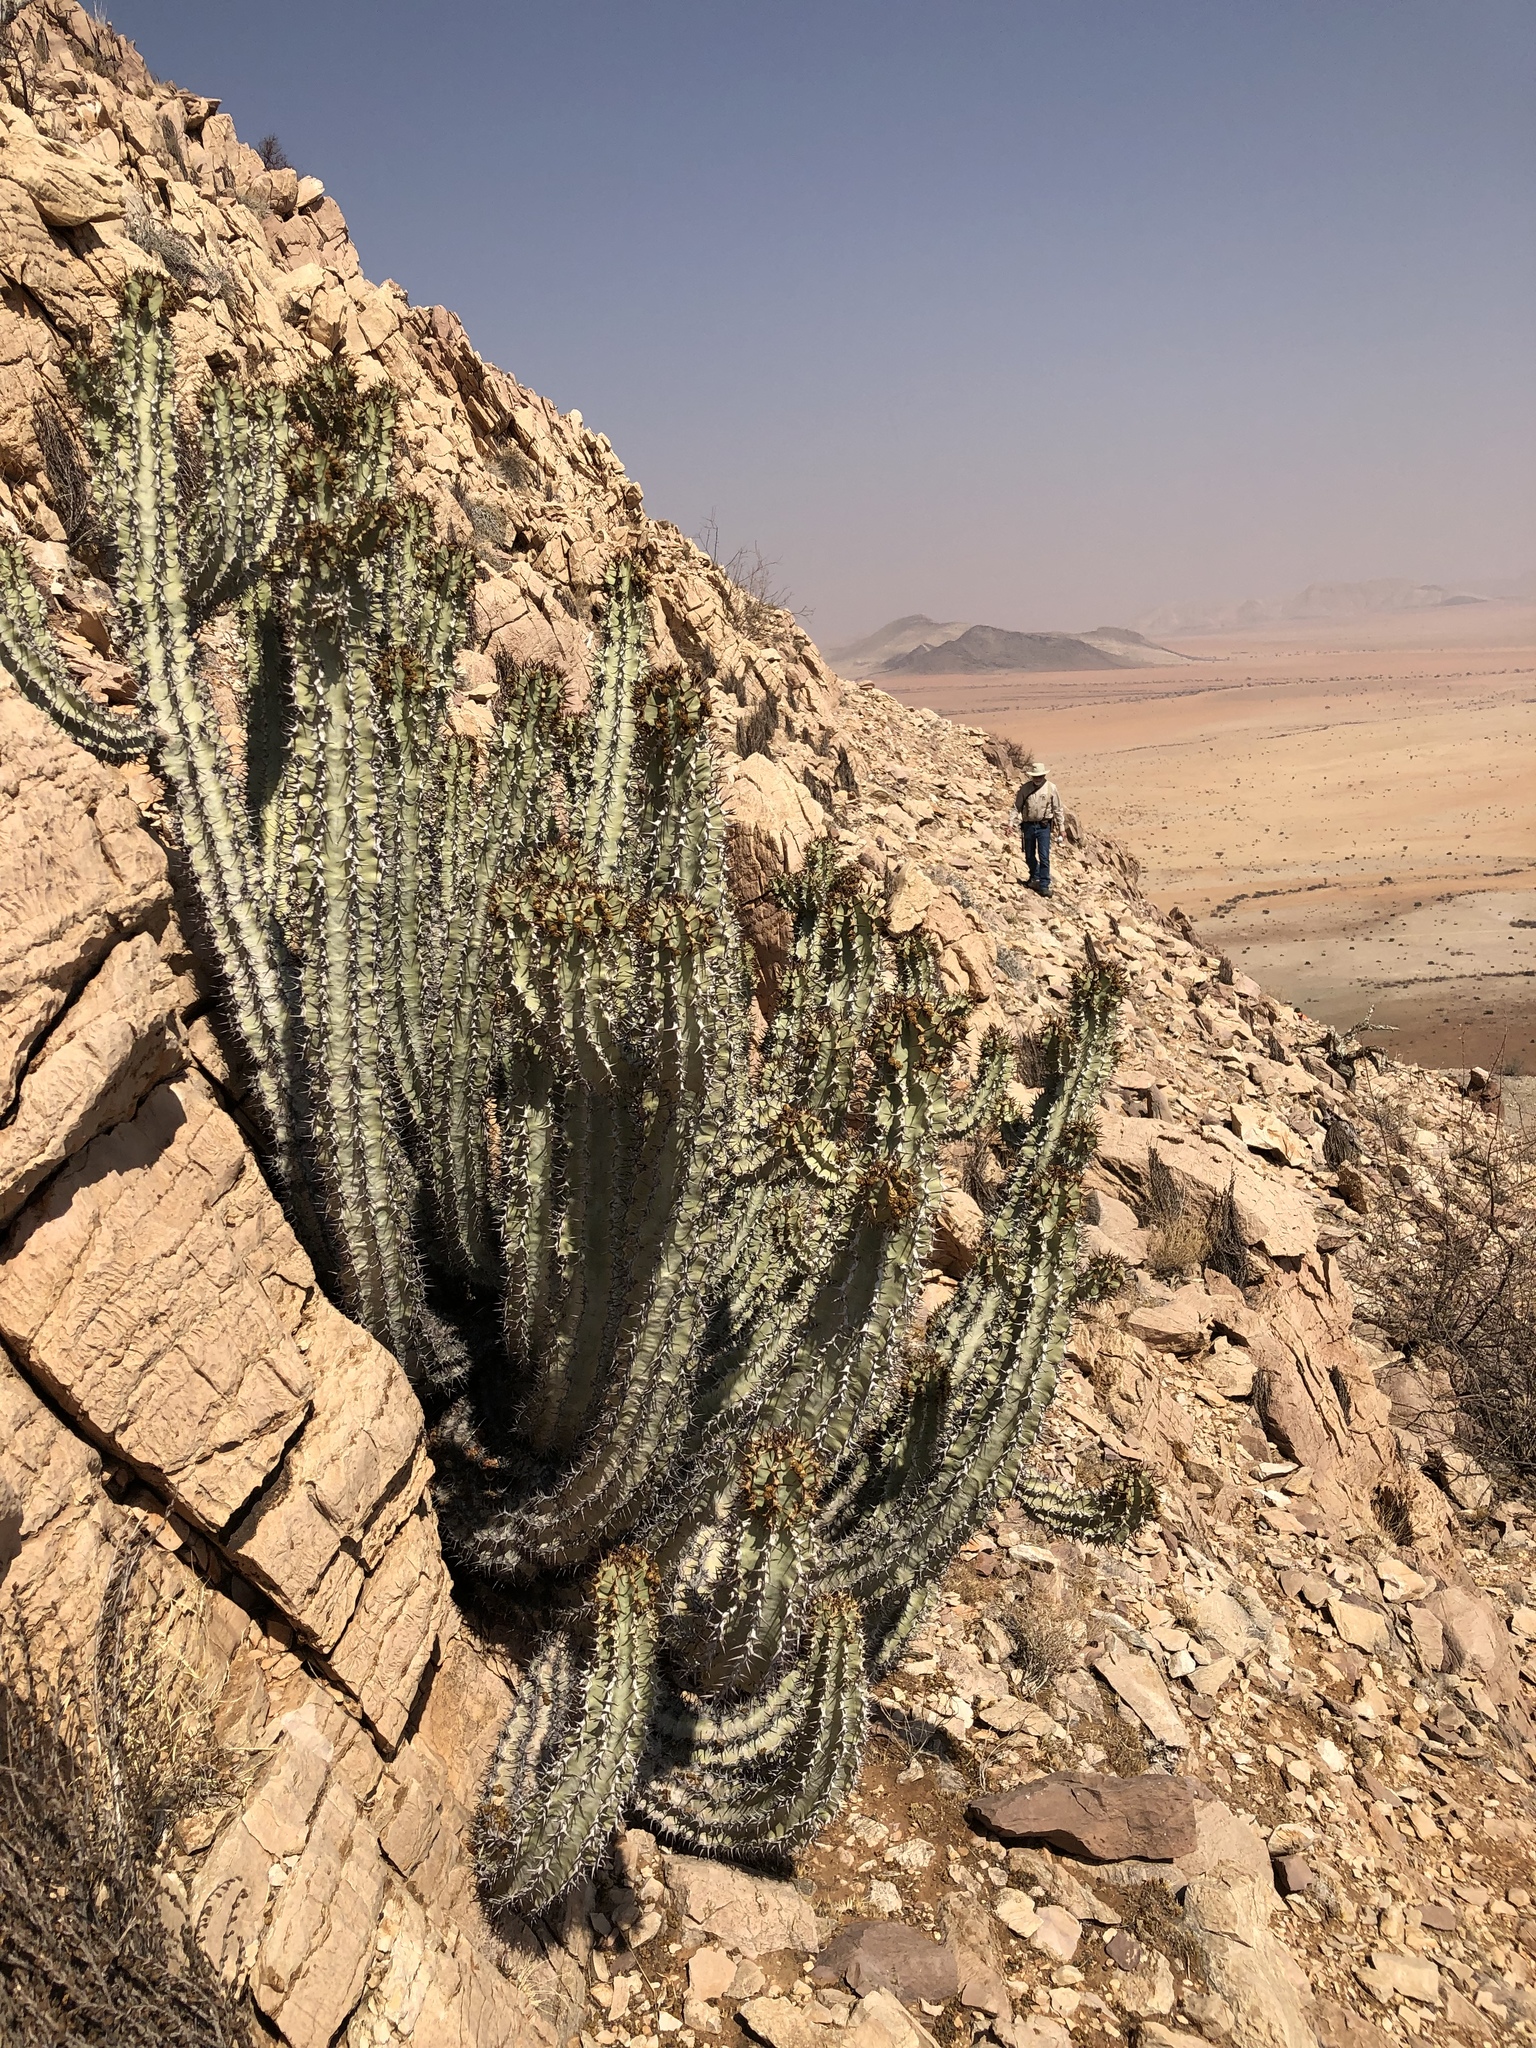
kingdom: Plantae
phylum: Tracheophyta
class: Magnoliopsida
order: Malpighiales
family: Euphorbiaceae
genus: Euphorbia
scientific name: Euphorbia virosa
